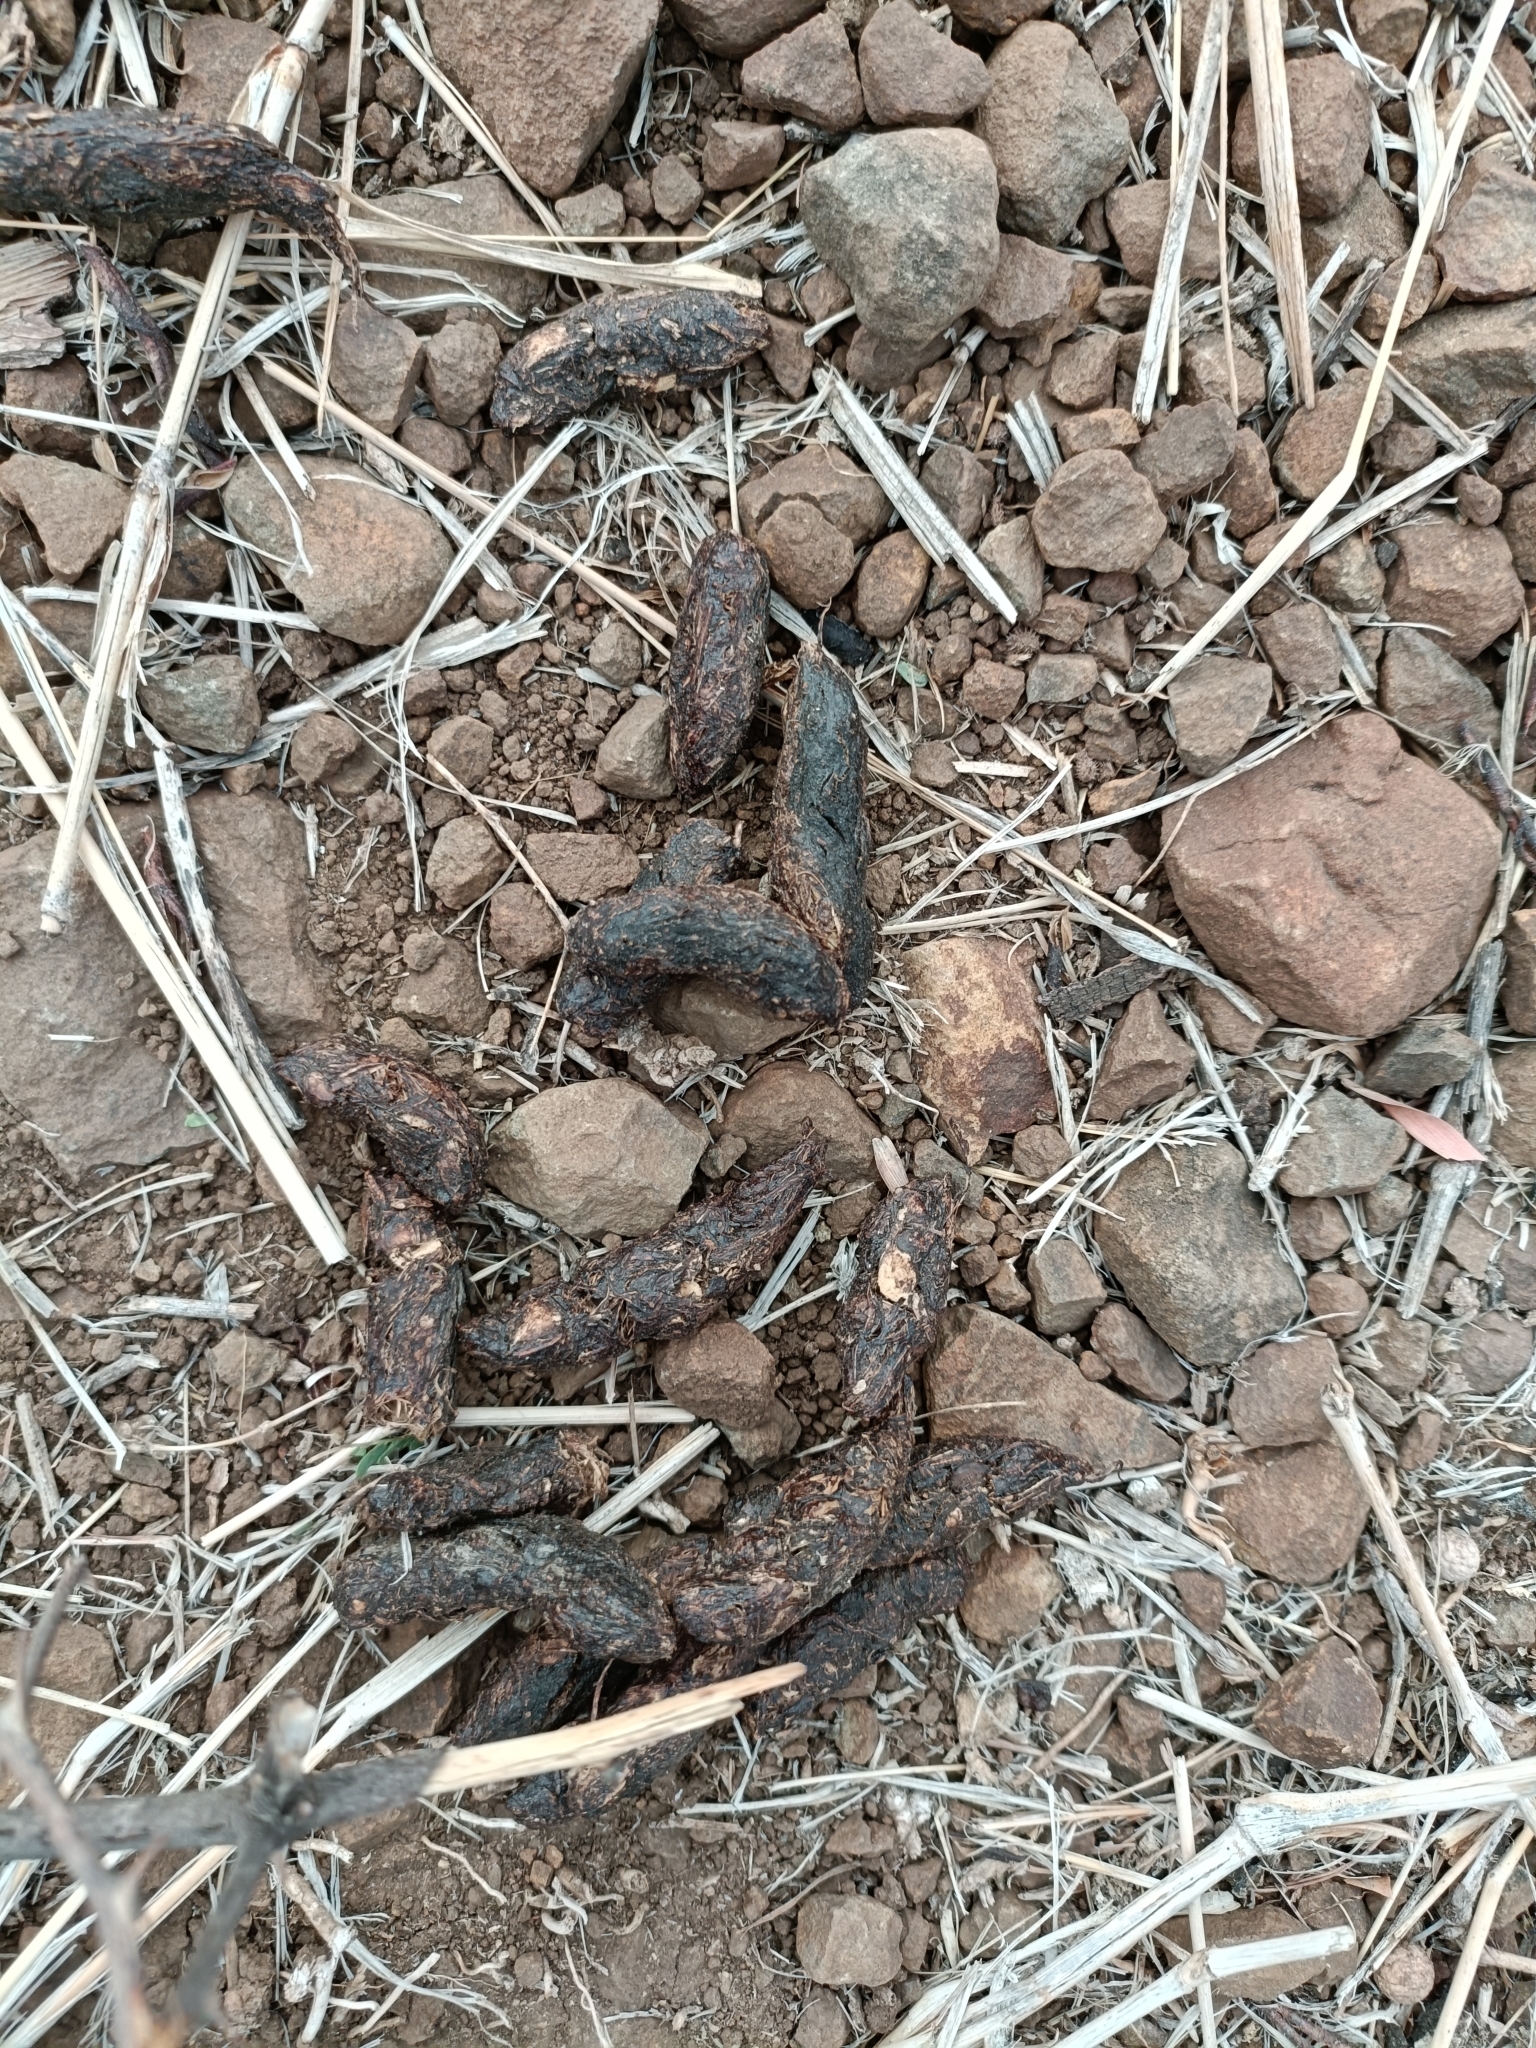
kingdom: Animalia
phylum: Chordata
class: Mammalia
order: Rodentia
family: Hystricidae
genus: Hystrix
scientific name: Hystrix indica
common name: Indian crested porcupine
